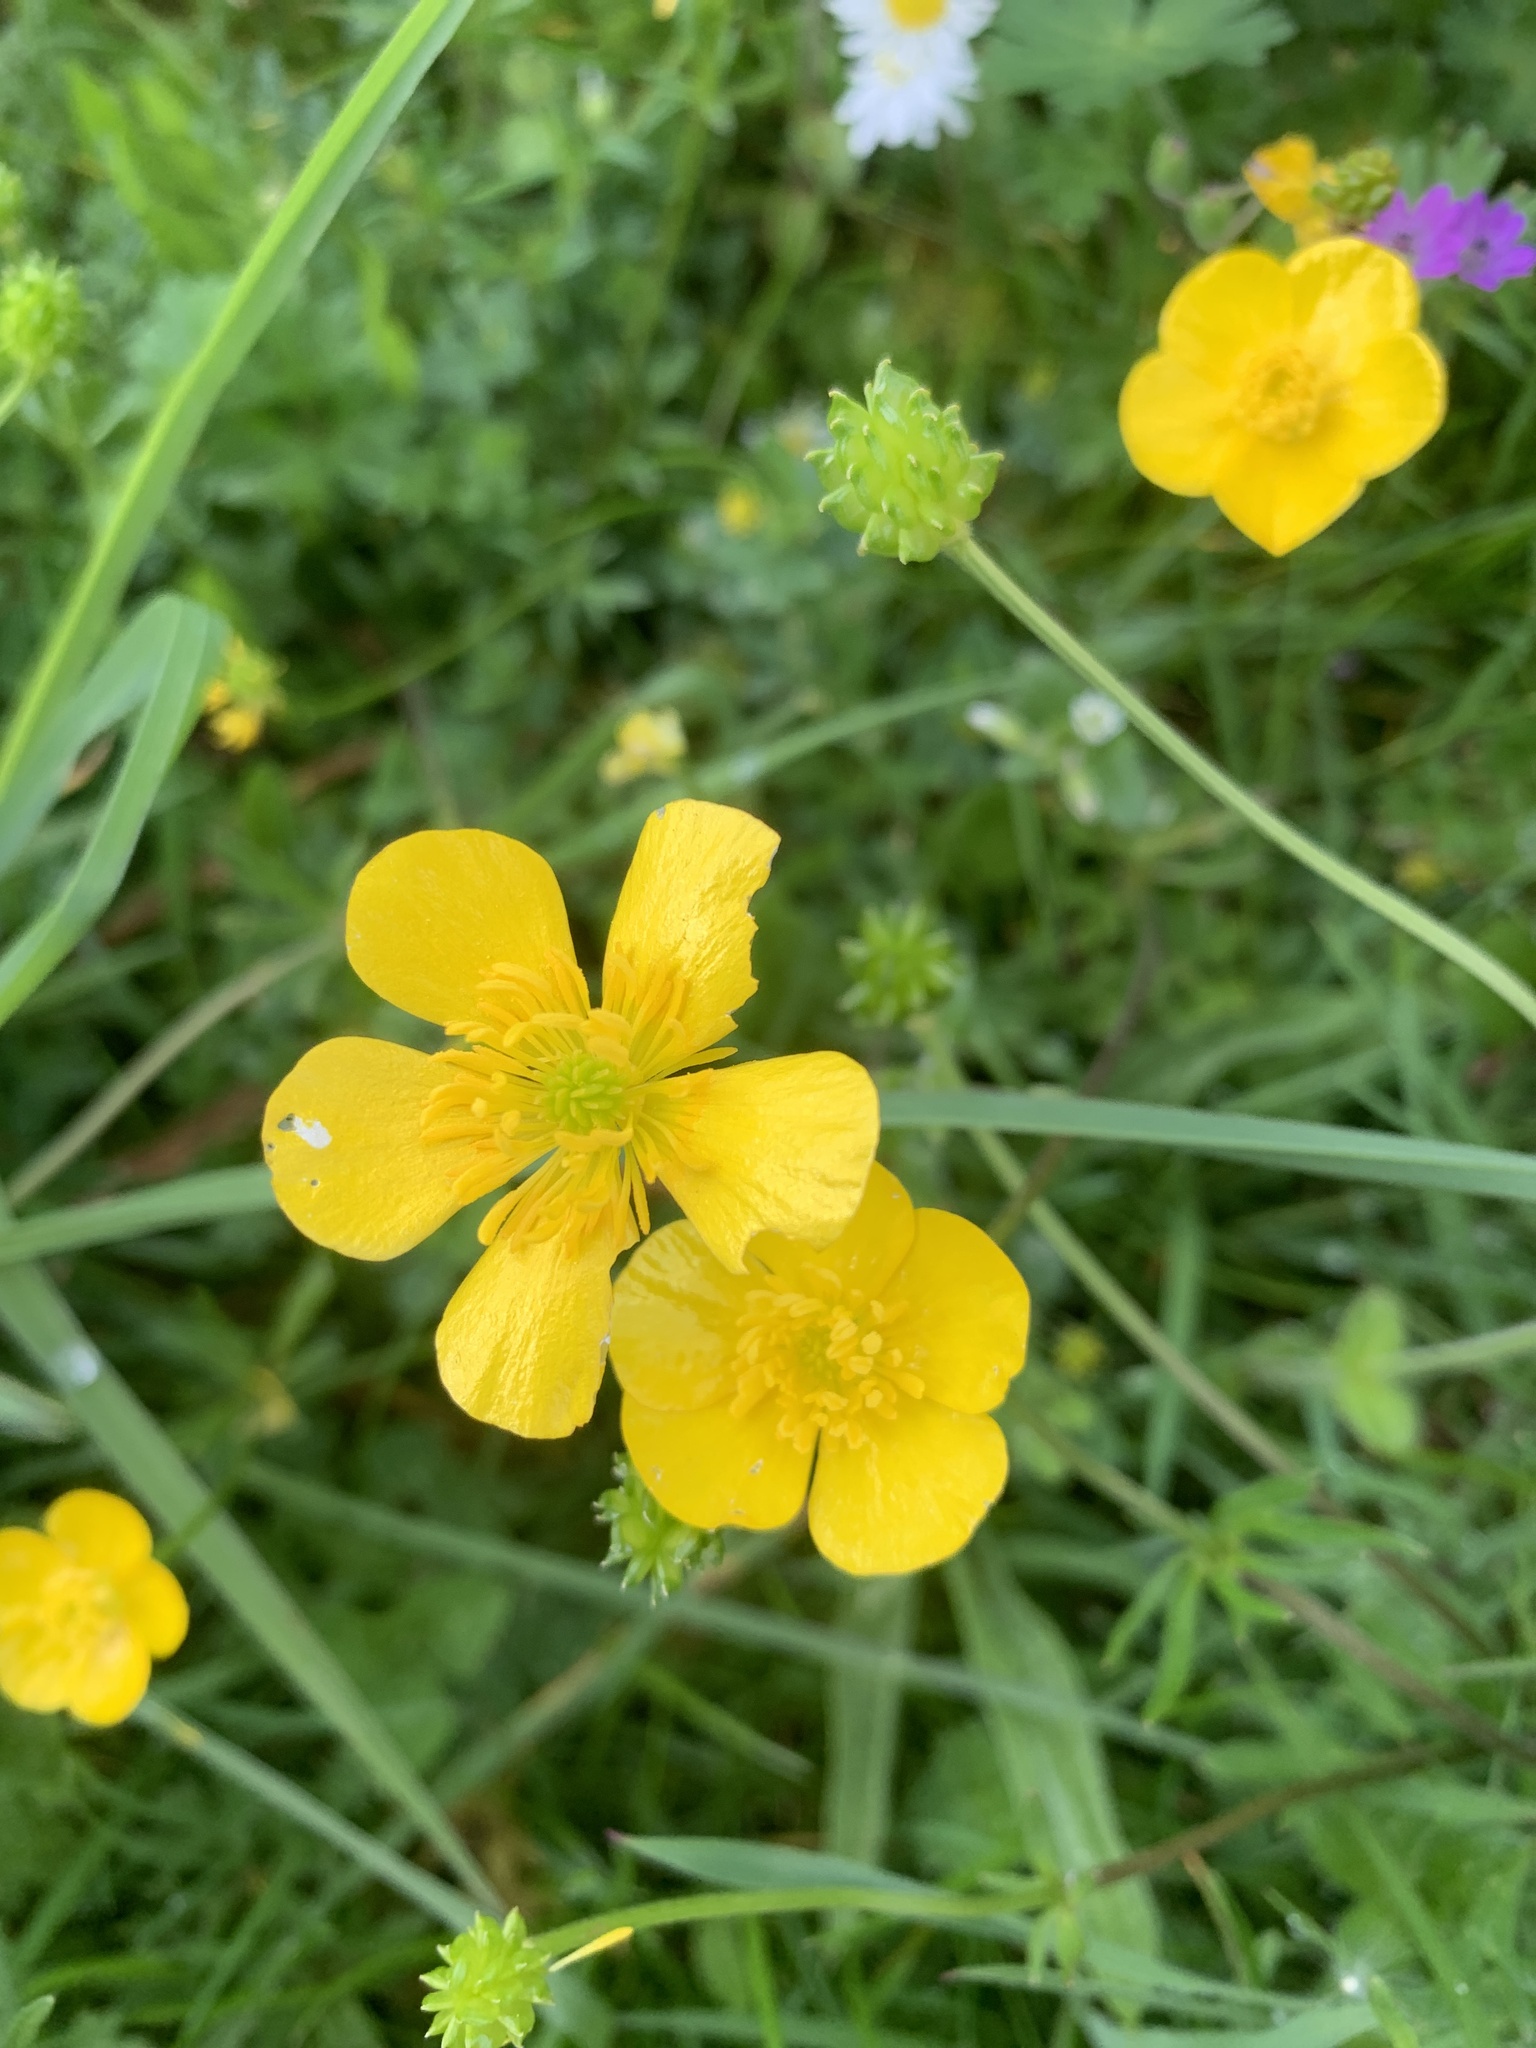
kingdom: Plantae
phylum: Tracheophyta
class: Magnoliopsida
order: Ranunculales
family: Ranunculaceae
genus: Ranunculus
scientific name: Ranunculus acris
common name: Meadow buttercup
